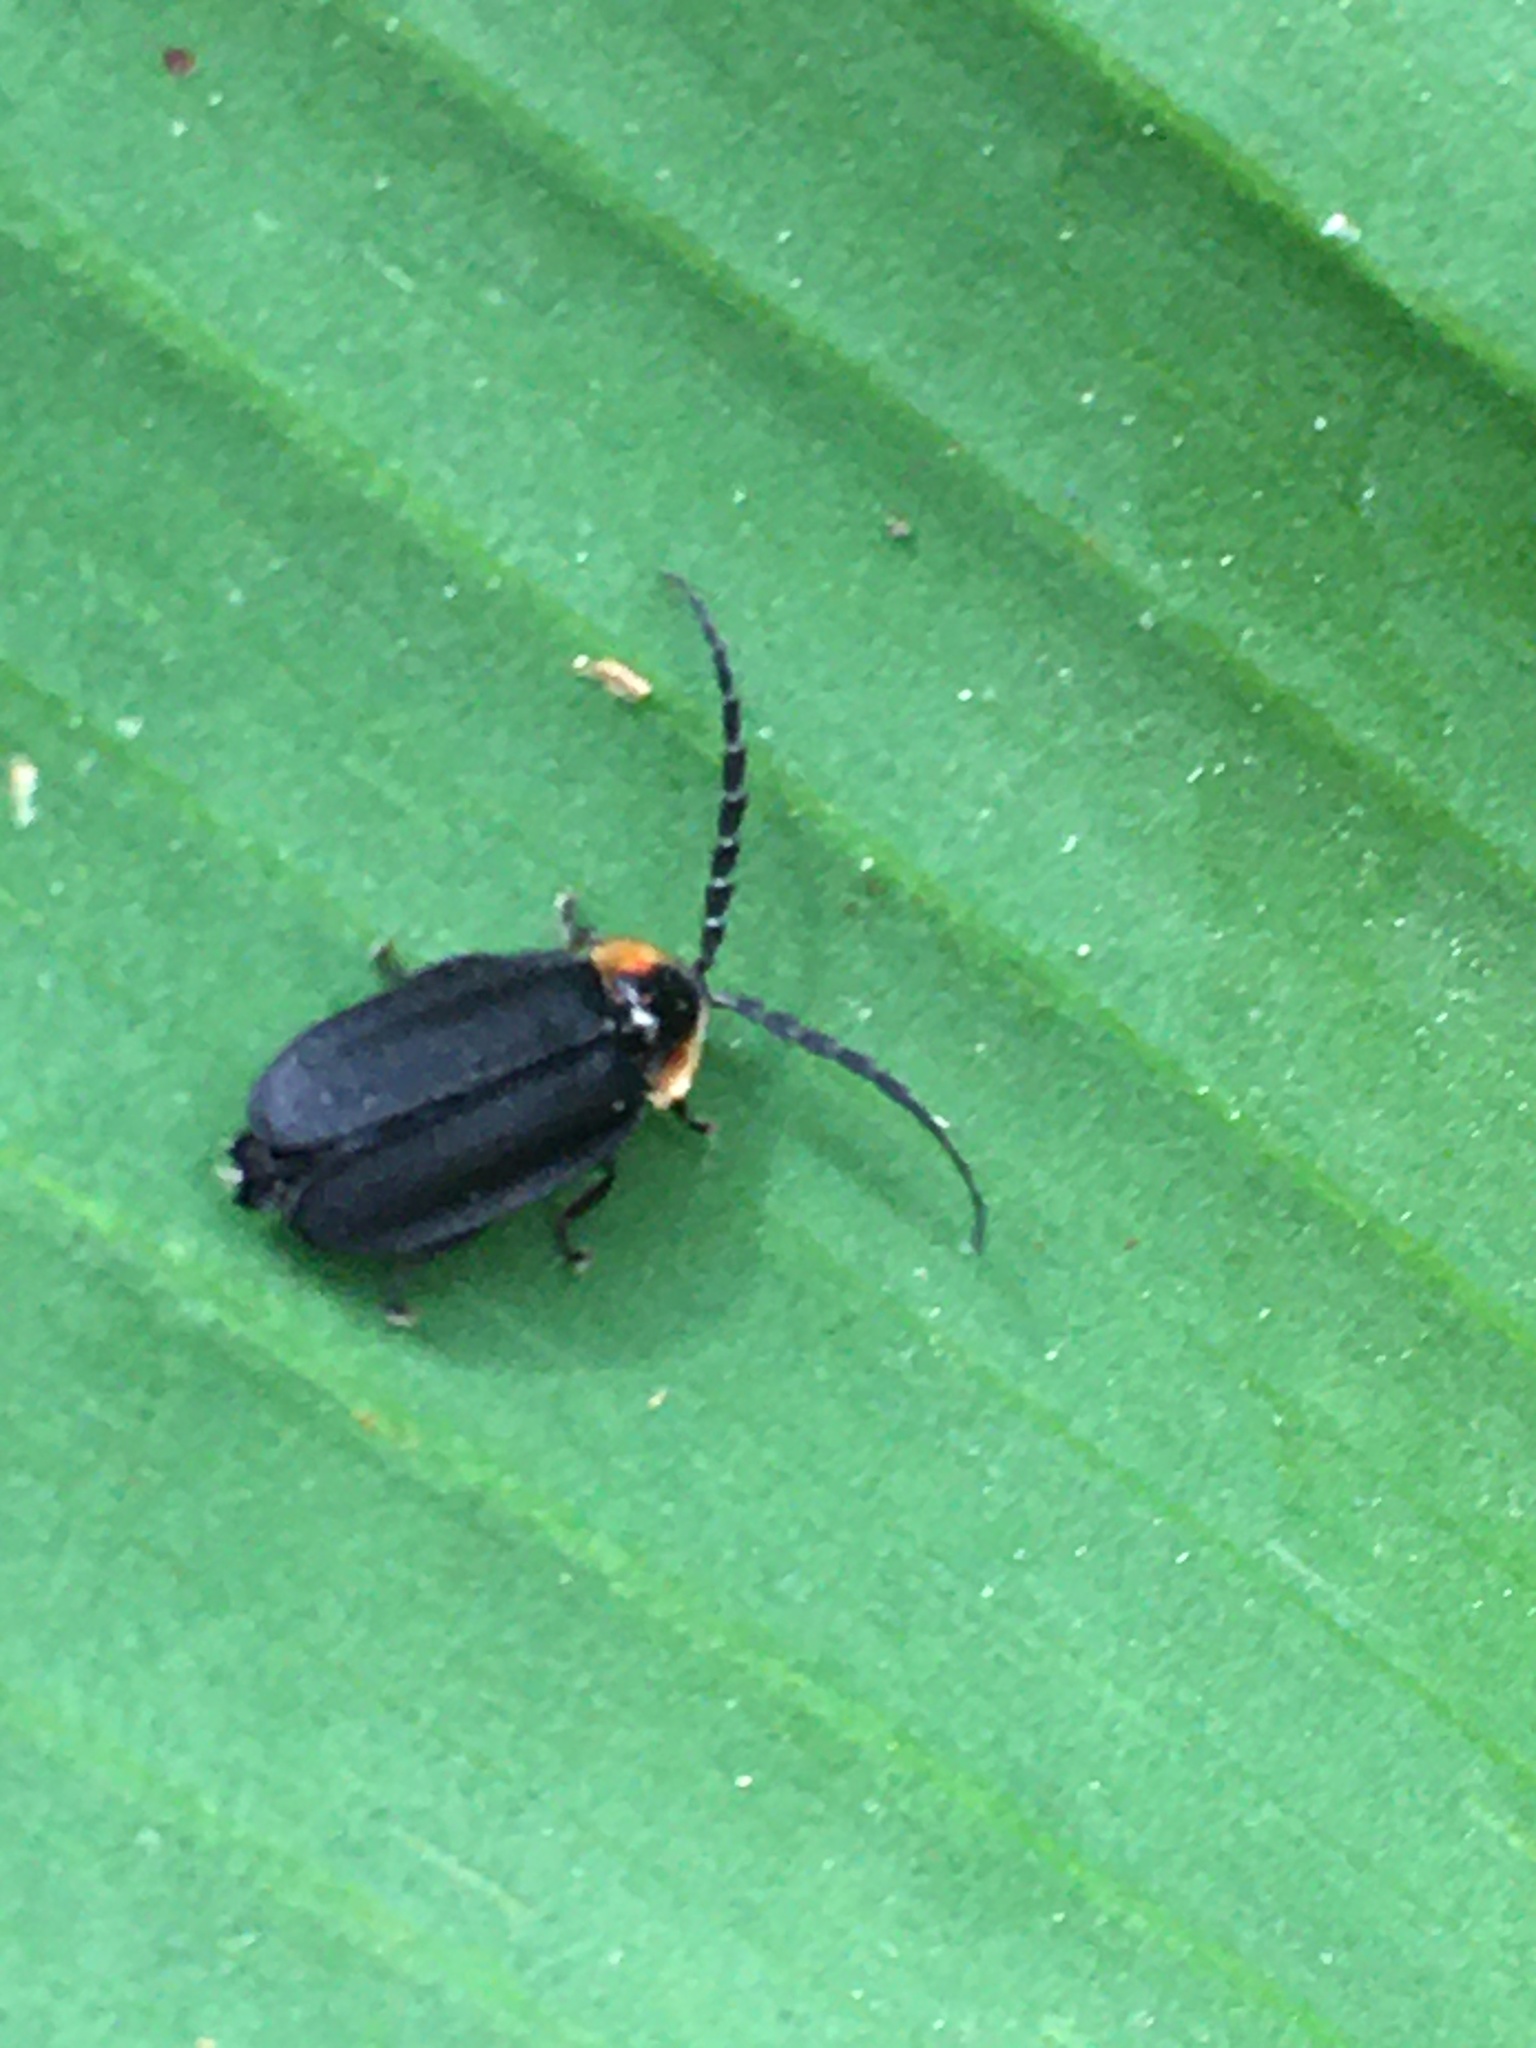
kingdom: Animalia
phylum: Arthropoda
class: Insecta
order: Coleoptera
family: Lampyridae
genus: Lucidota
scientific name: Lucidota atra
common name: Black firefly
